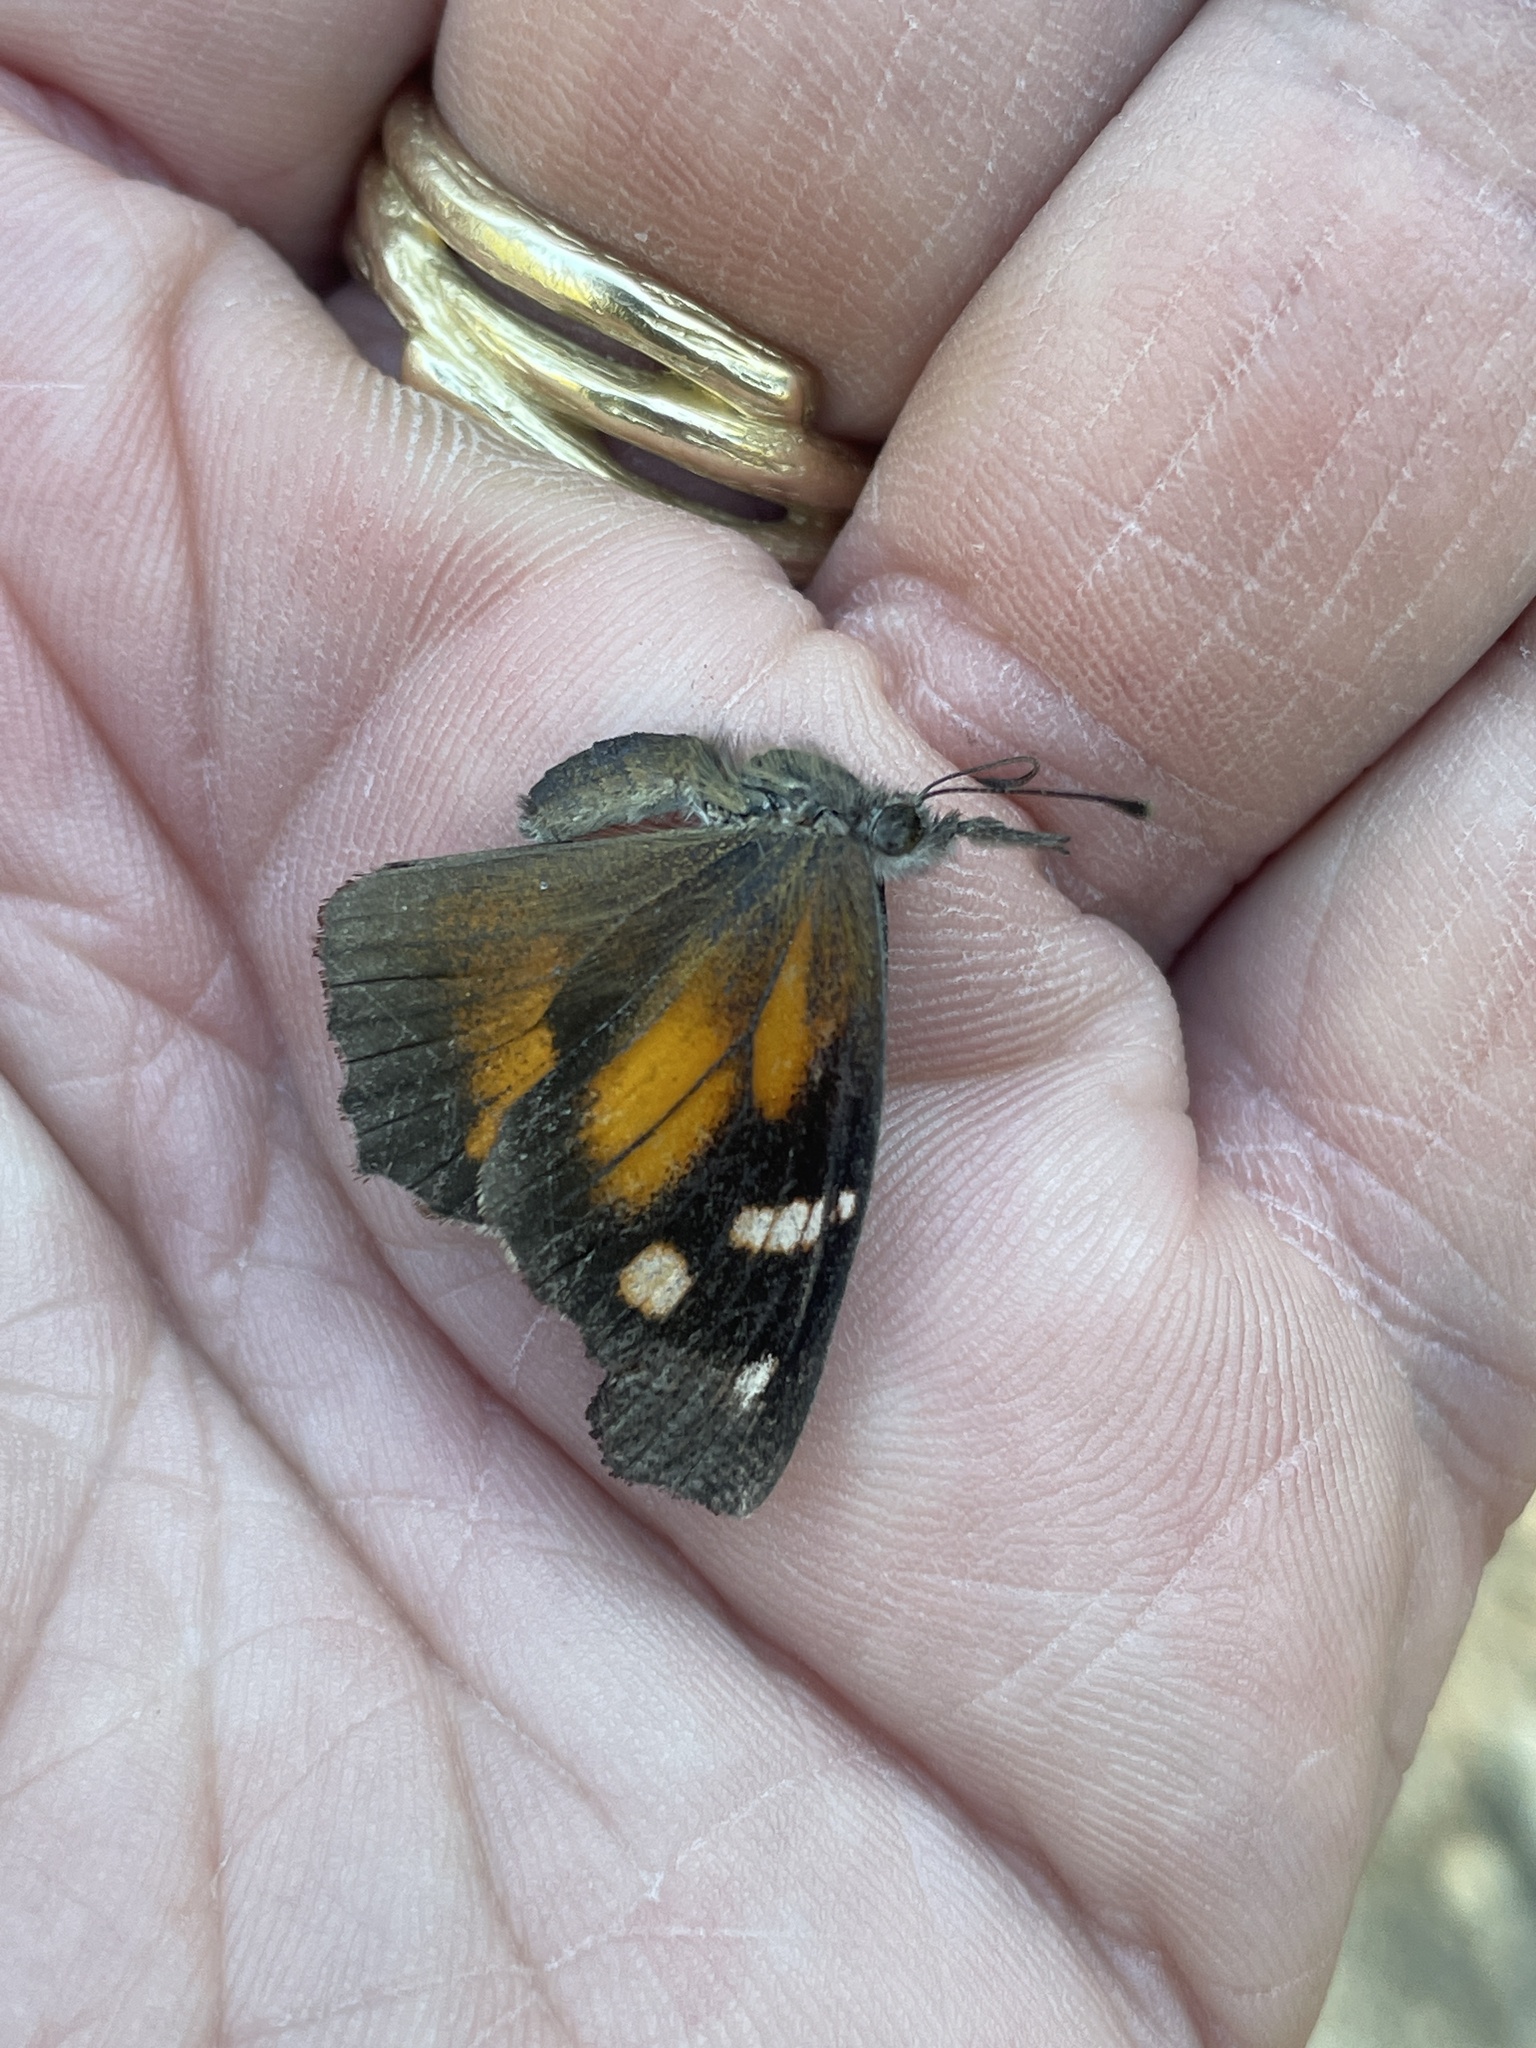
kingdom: Animalia
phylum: Arthropoda
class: Insecta
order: Lepidoptera
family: Nymphalidae
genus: Libytheana
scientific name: Libytheana carinenta
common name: American snout
